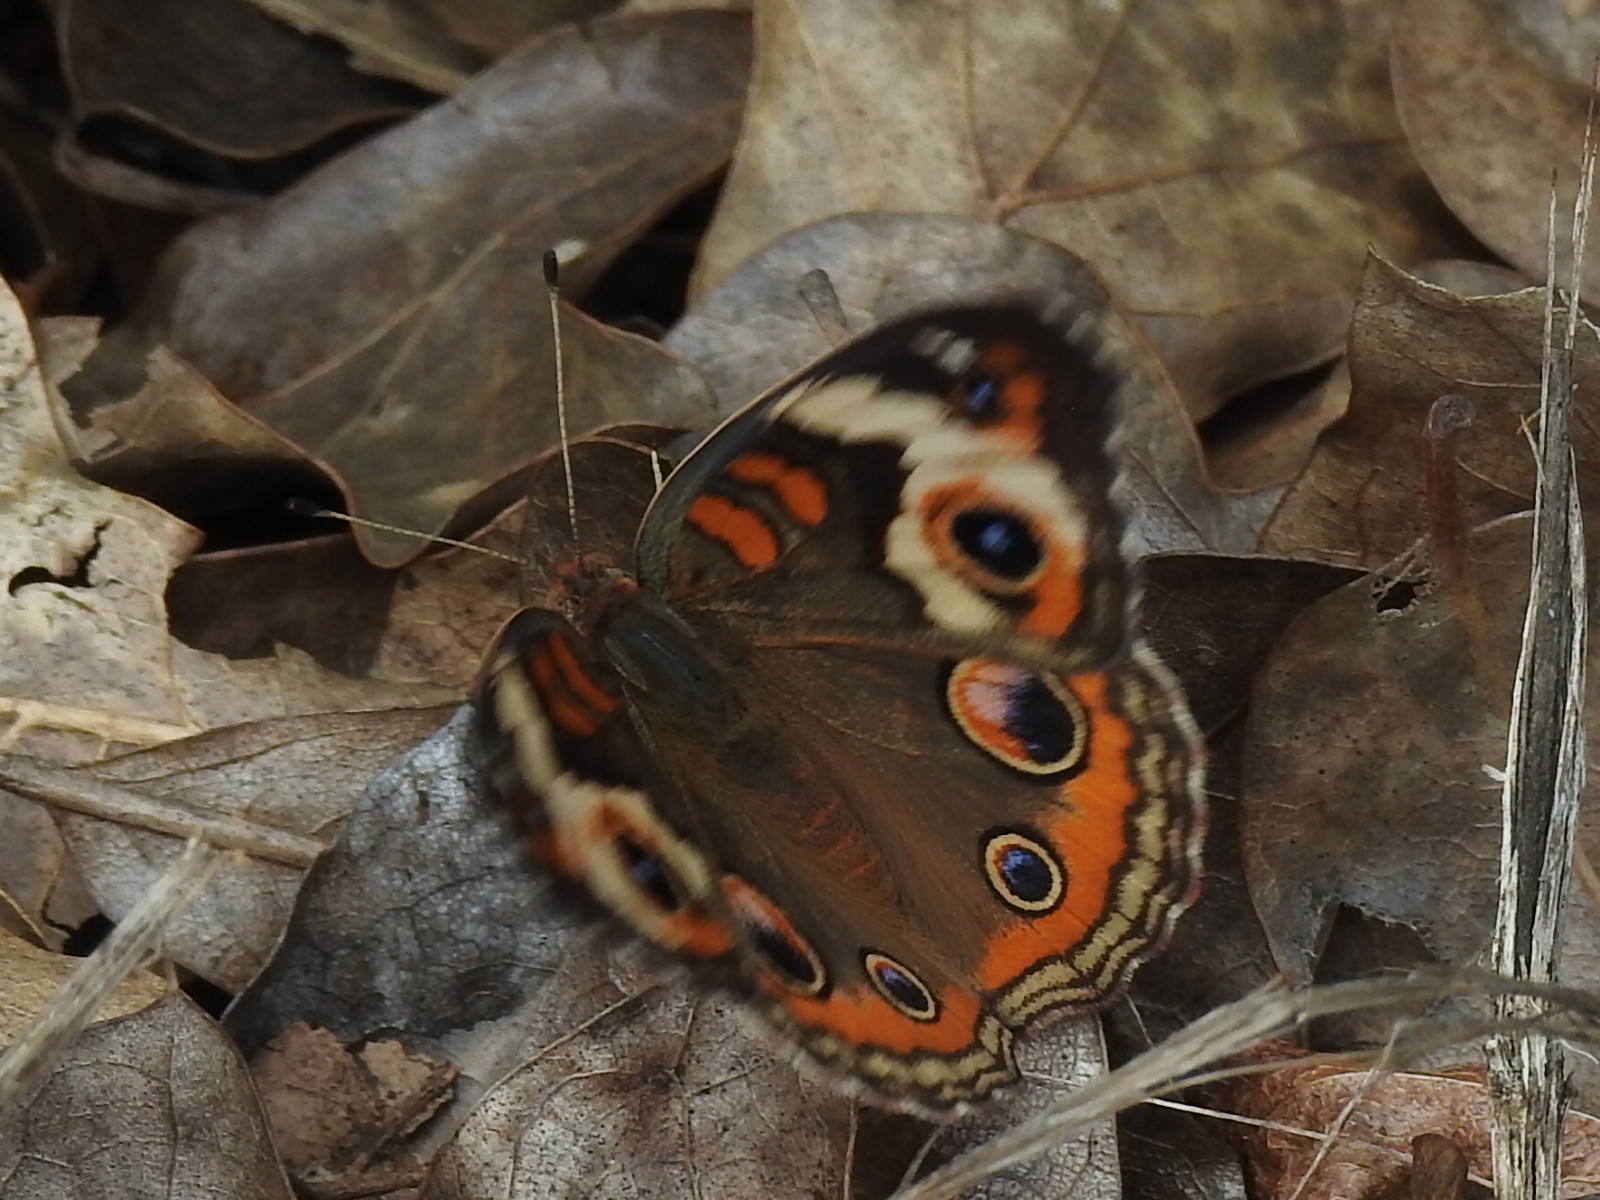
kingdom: Animalia
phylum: Arthropoda
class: Insecta
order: Lepidoptera
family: Nymphalidae
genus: Junonia
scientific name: Junonia coenia
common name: Common buckeye
